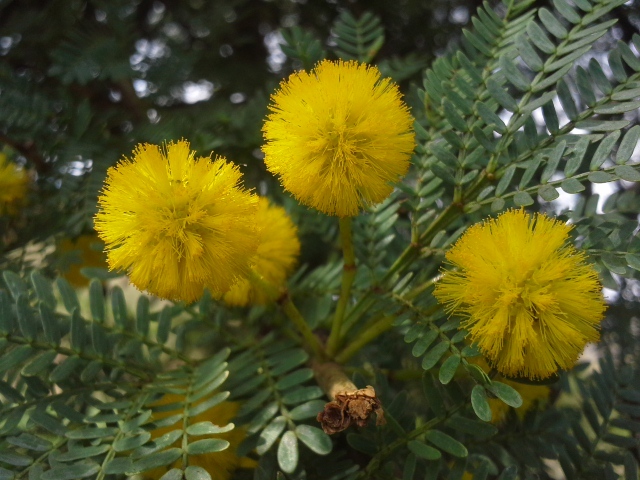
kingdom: Plantae
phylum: Tracheophyta
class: Magnoliopsida
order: Fabales
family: Fabaceae
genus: Vachellia
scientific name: Vachellia karroo
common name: Sweet thorn
